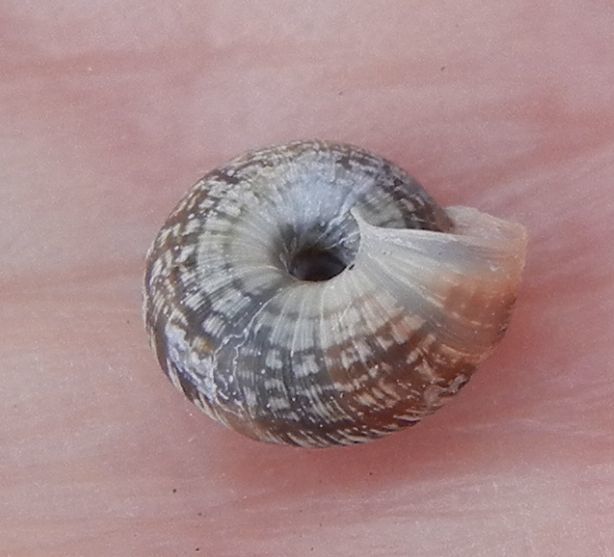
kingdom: Animalia
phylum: Mollusca
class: Gastropoda
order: Stylommatophora
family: Geomitridae
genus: Xeroplexa
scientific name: Xeroplexa intersecta
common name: Wrinkled snail
